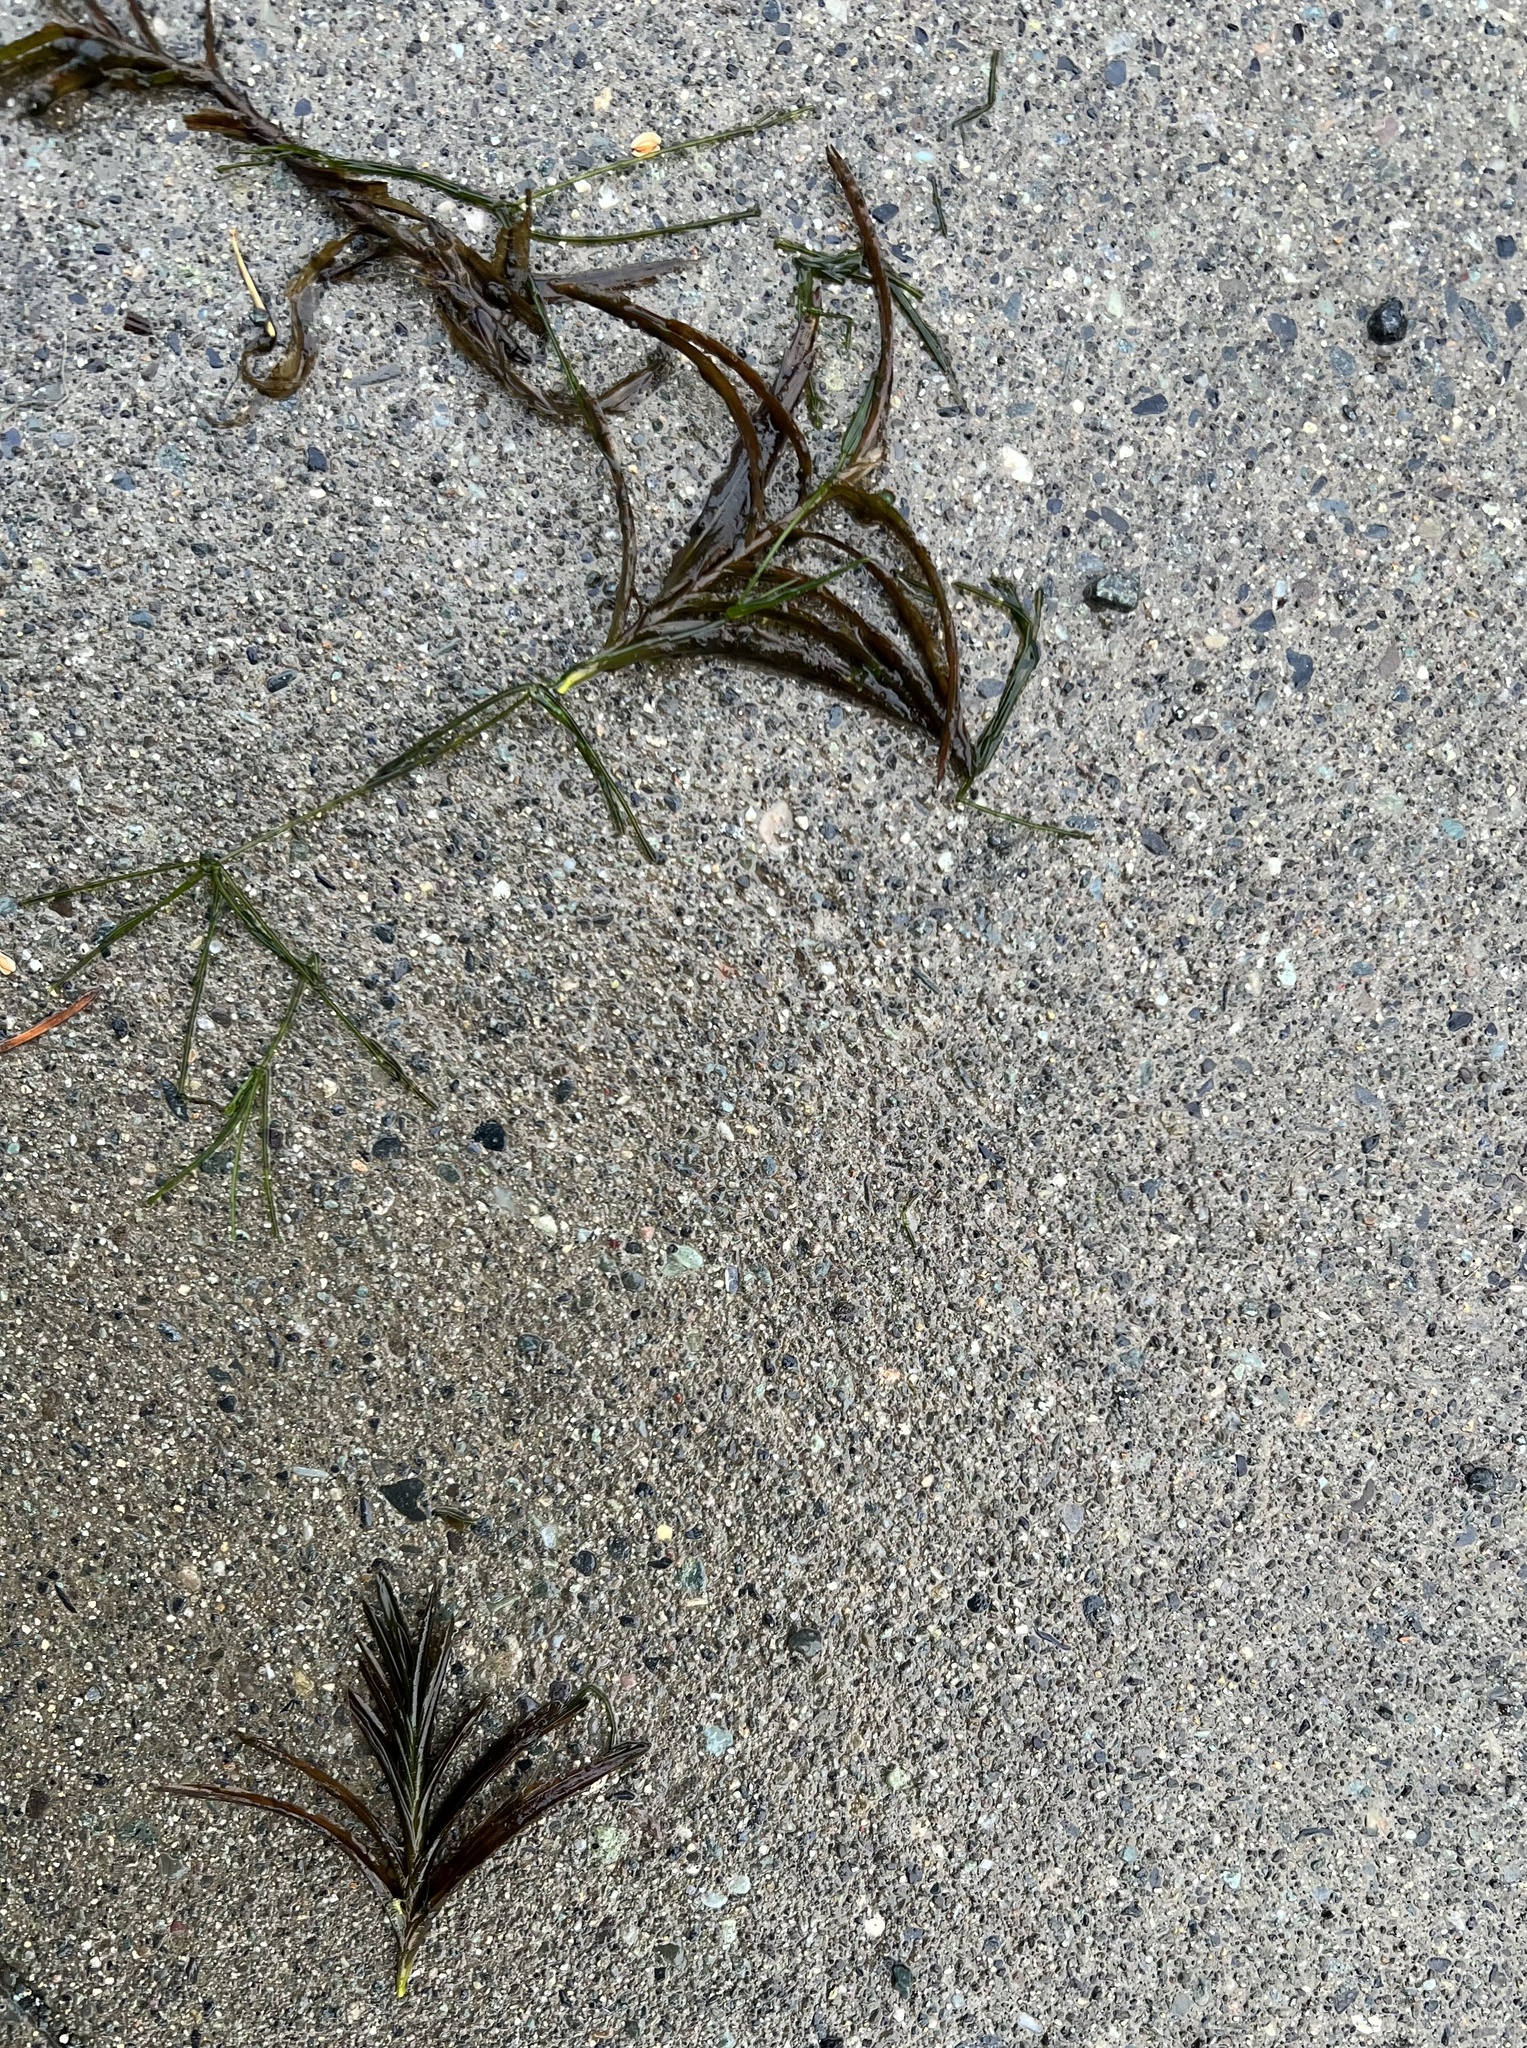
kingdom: Plantae
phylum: Tracheophyta
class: Liliopsida
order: Alismatales
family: Potamogetonaceae
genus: Potamogeton
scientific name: Potamogeton robbinsii
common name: Fern pondweed
